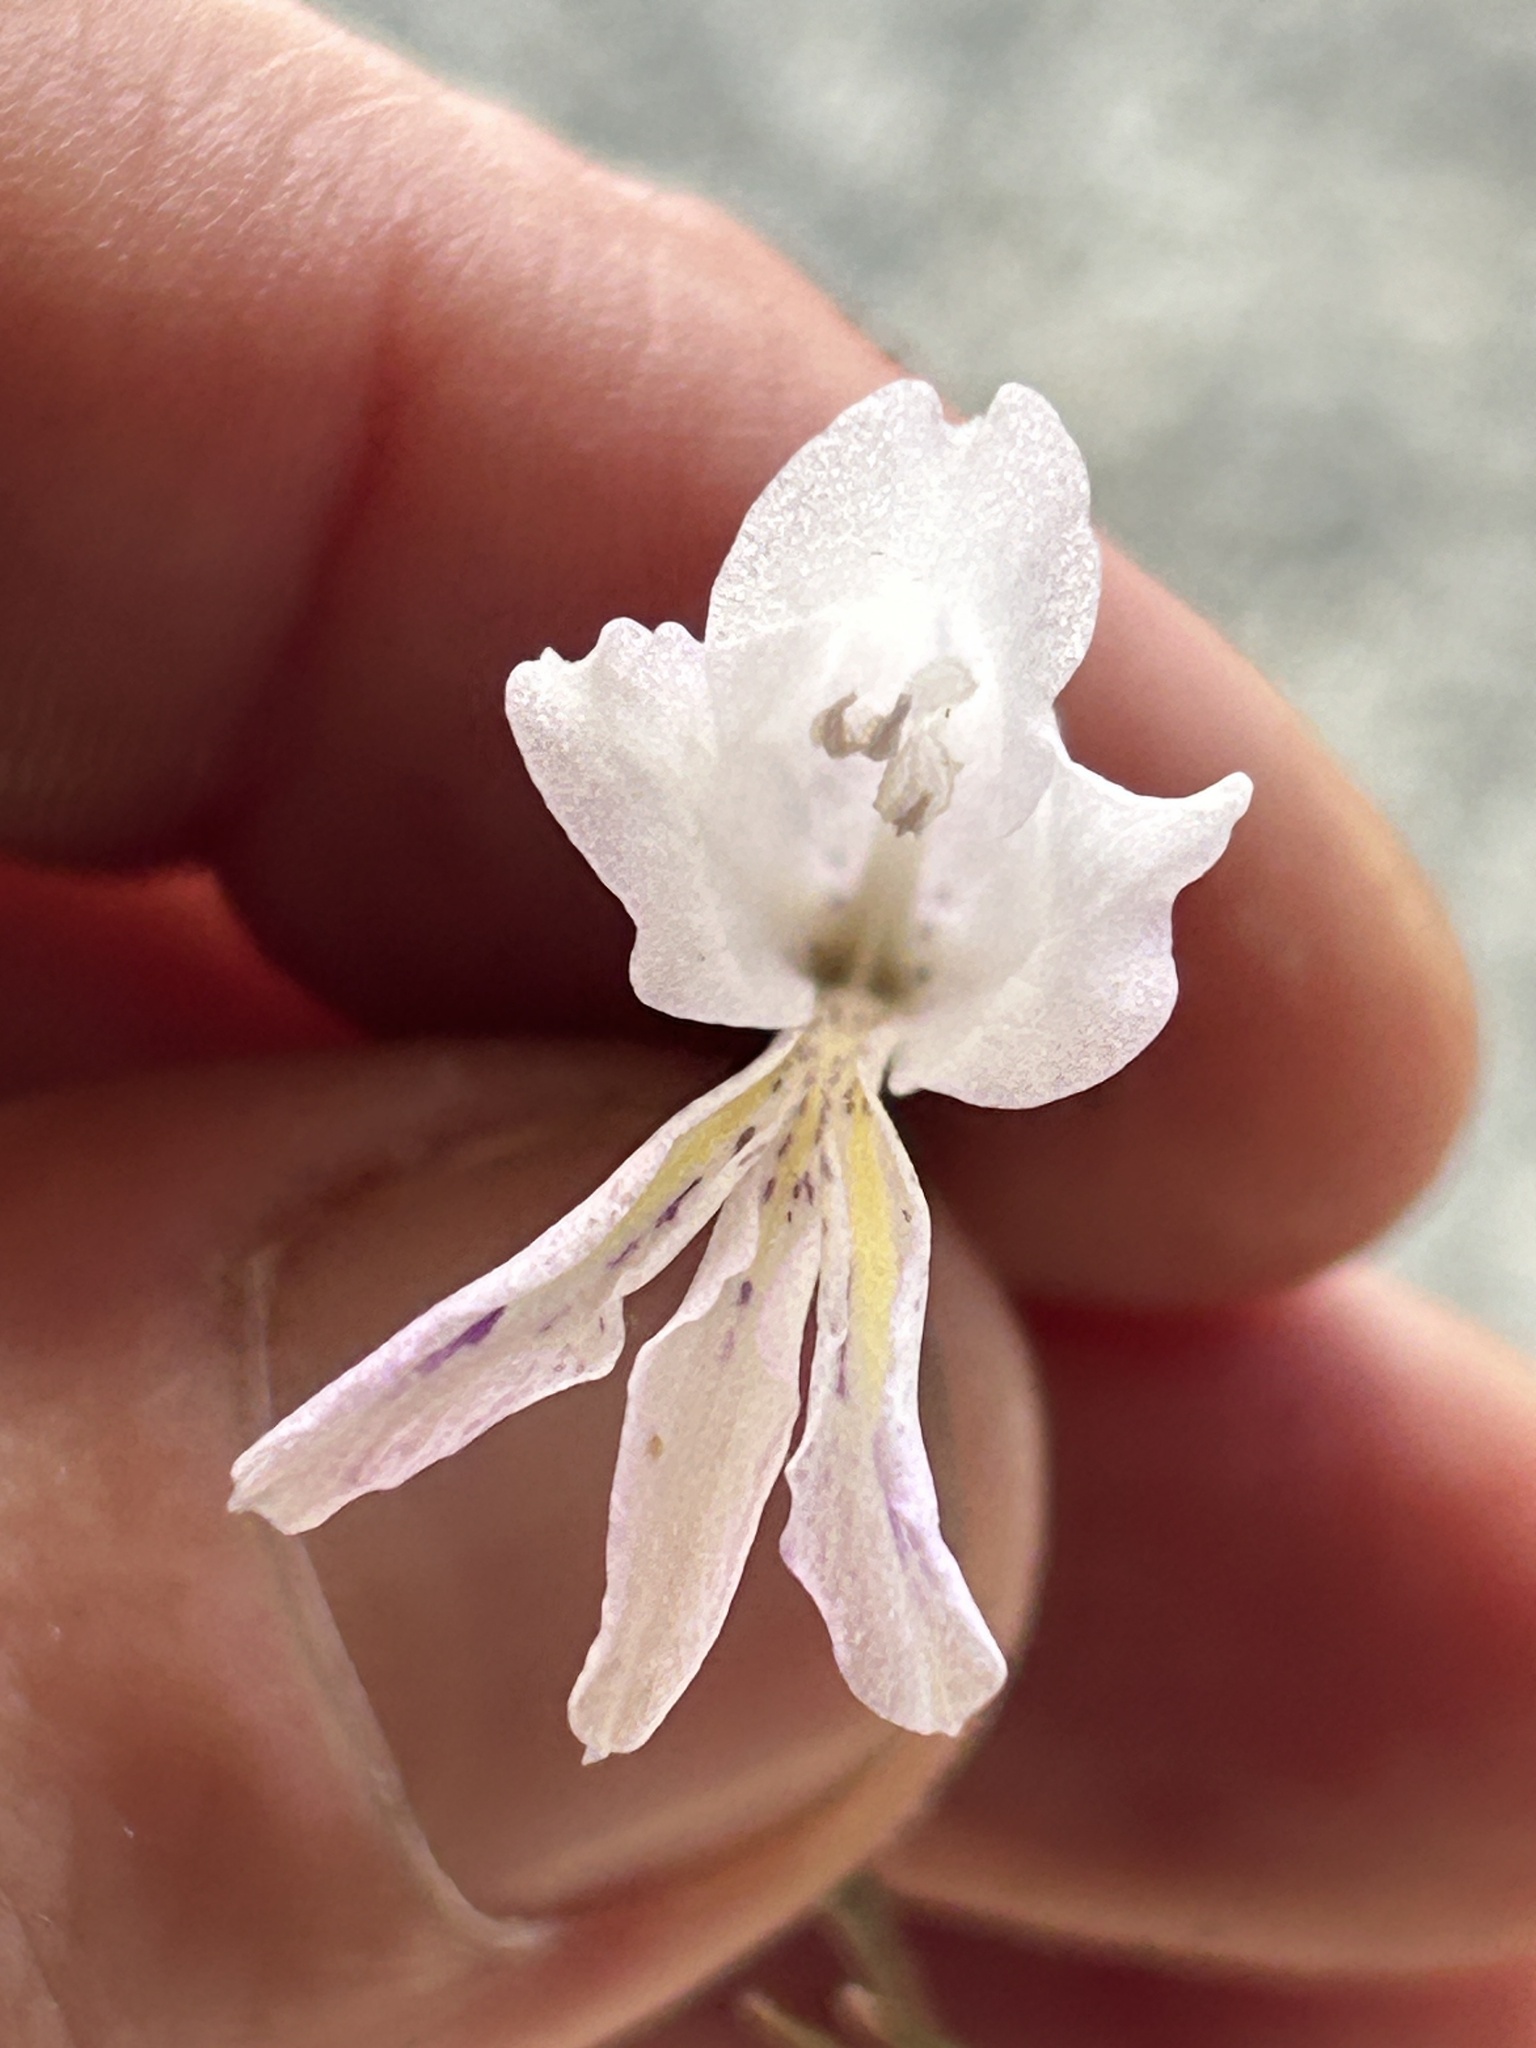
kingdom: Plantae
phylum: Tracheophyta
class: Liliopsida
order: Asparagales
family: Iridaceae
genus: Gladiolus
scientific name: Gladiolus vaginatus
